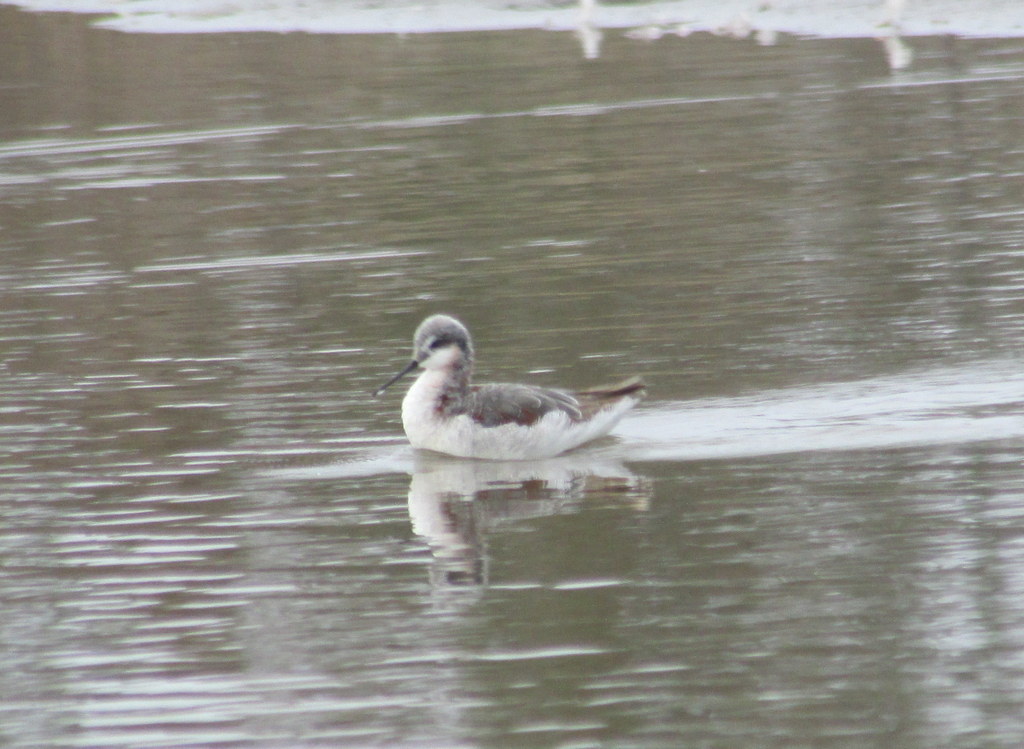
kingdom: Animalia
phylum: Chordata
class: Aves
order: Charadriiformes
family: Scolopacidae
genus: Phalaropus
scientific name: Phalaropus tricolor
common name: Wilson's phalarope
